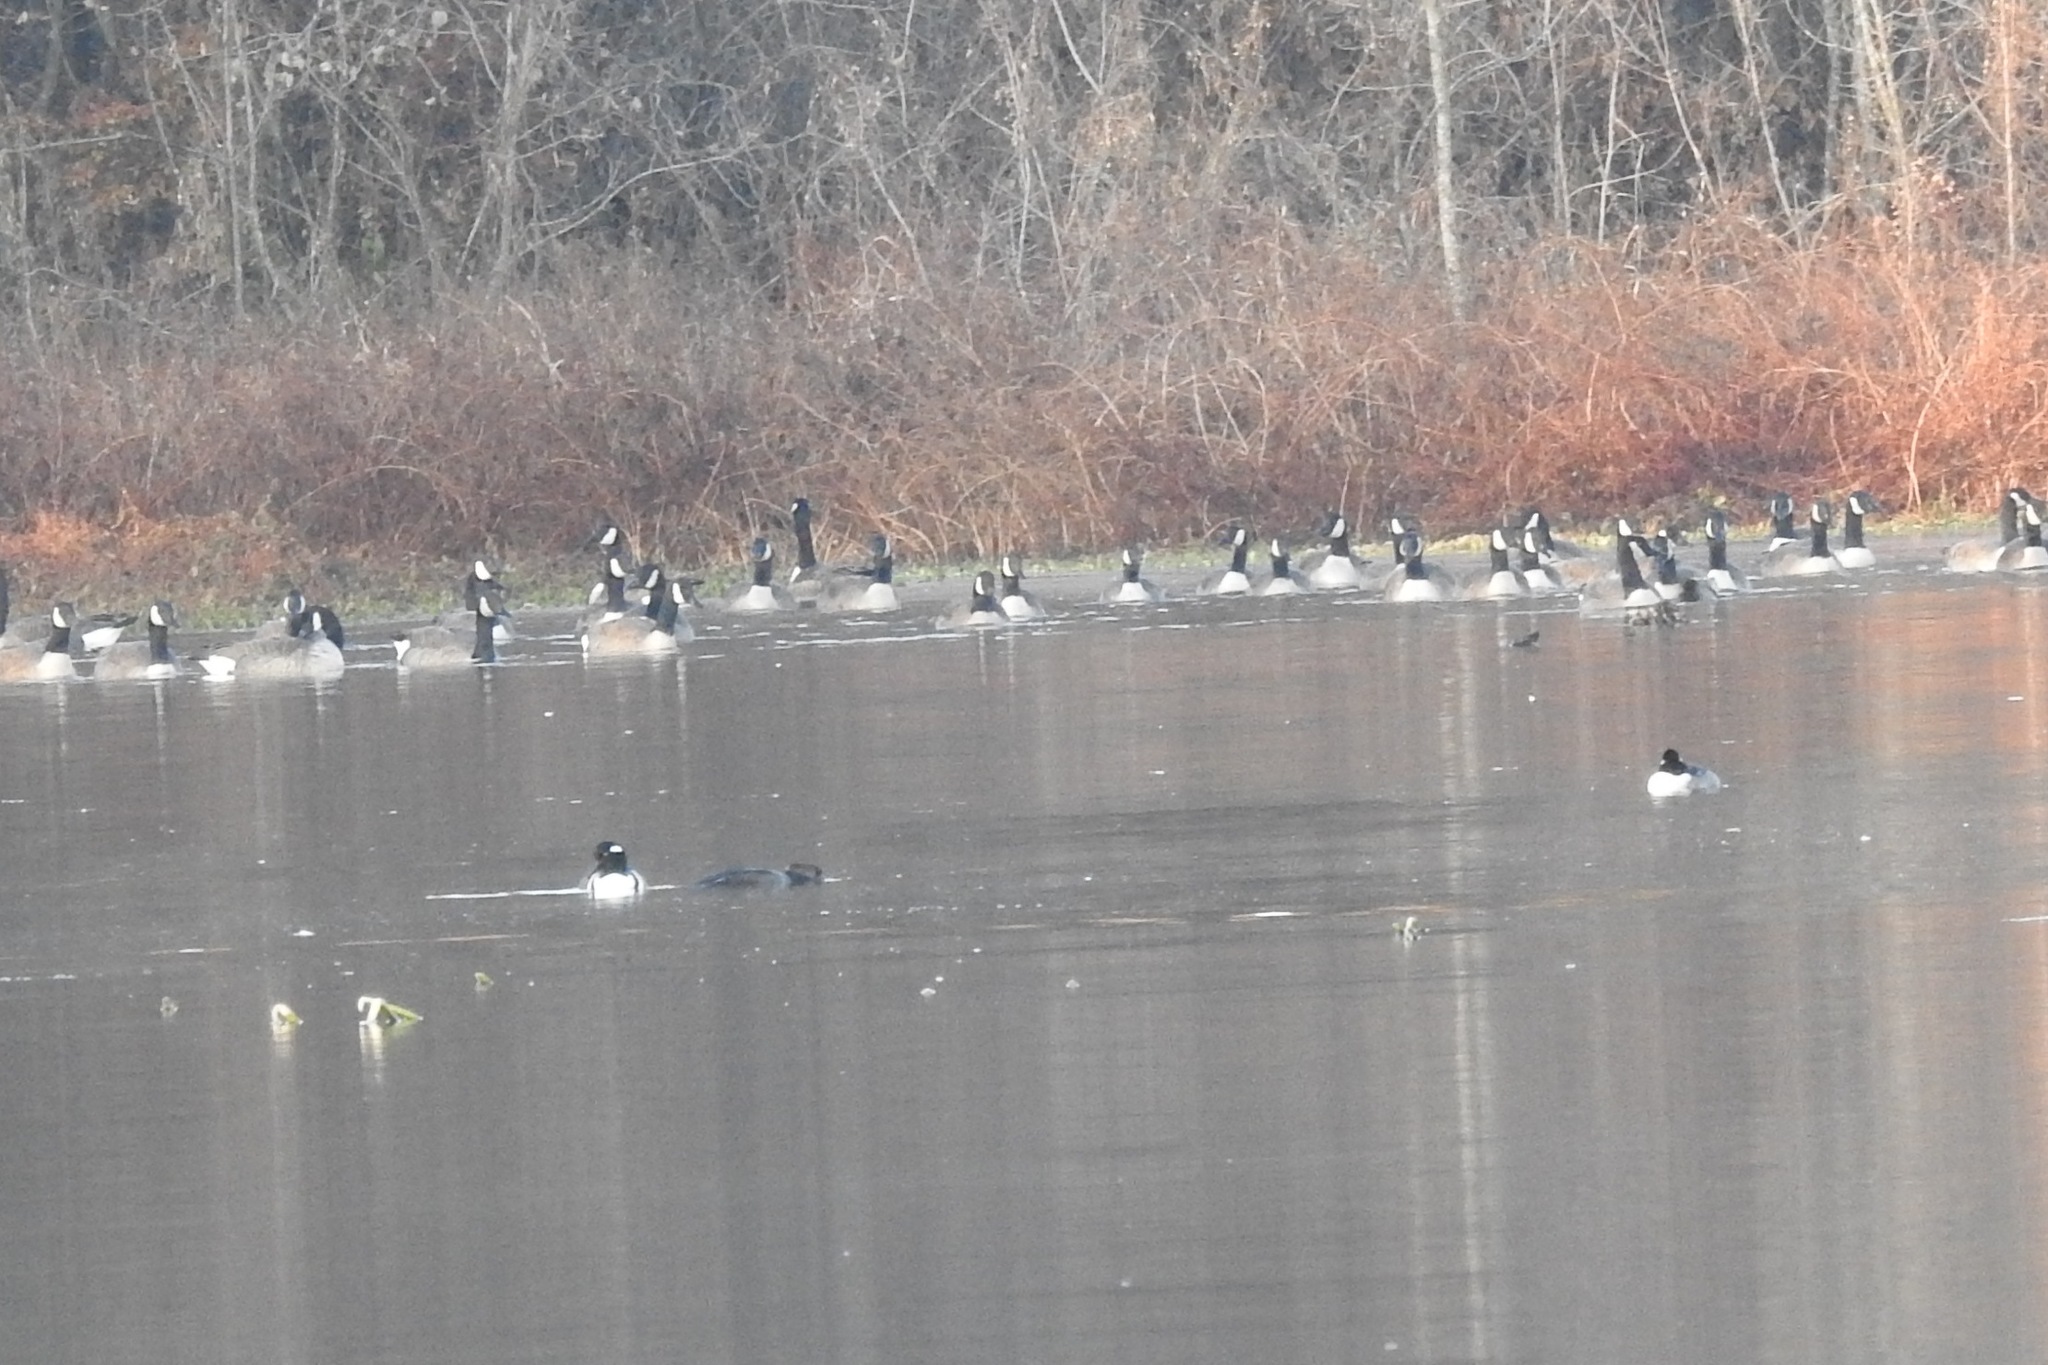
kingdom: Animalia
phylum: Chordata
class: Aves
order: Anseriformes
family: Anatidae
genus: Branta
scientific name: Branta canadensis
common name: Canada goose
